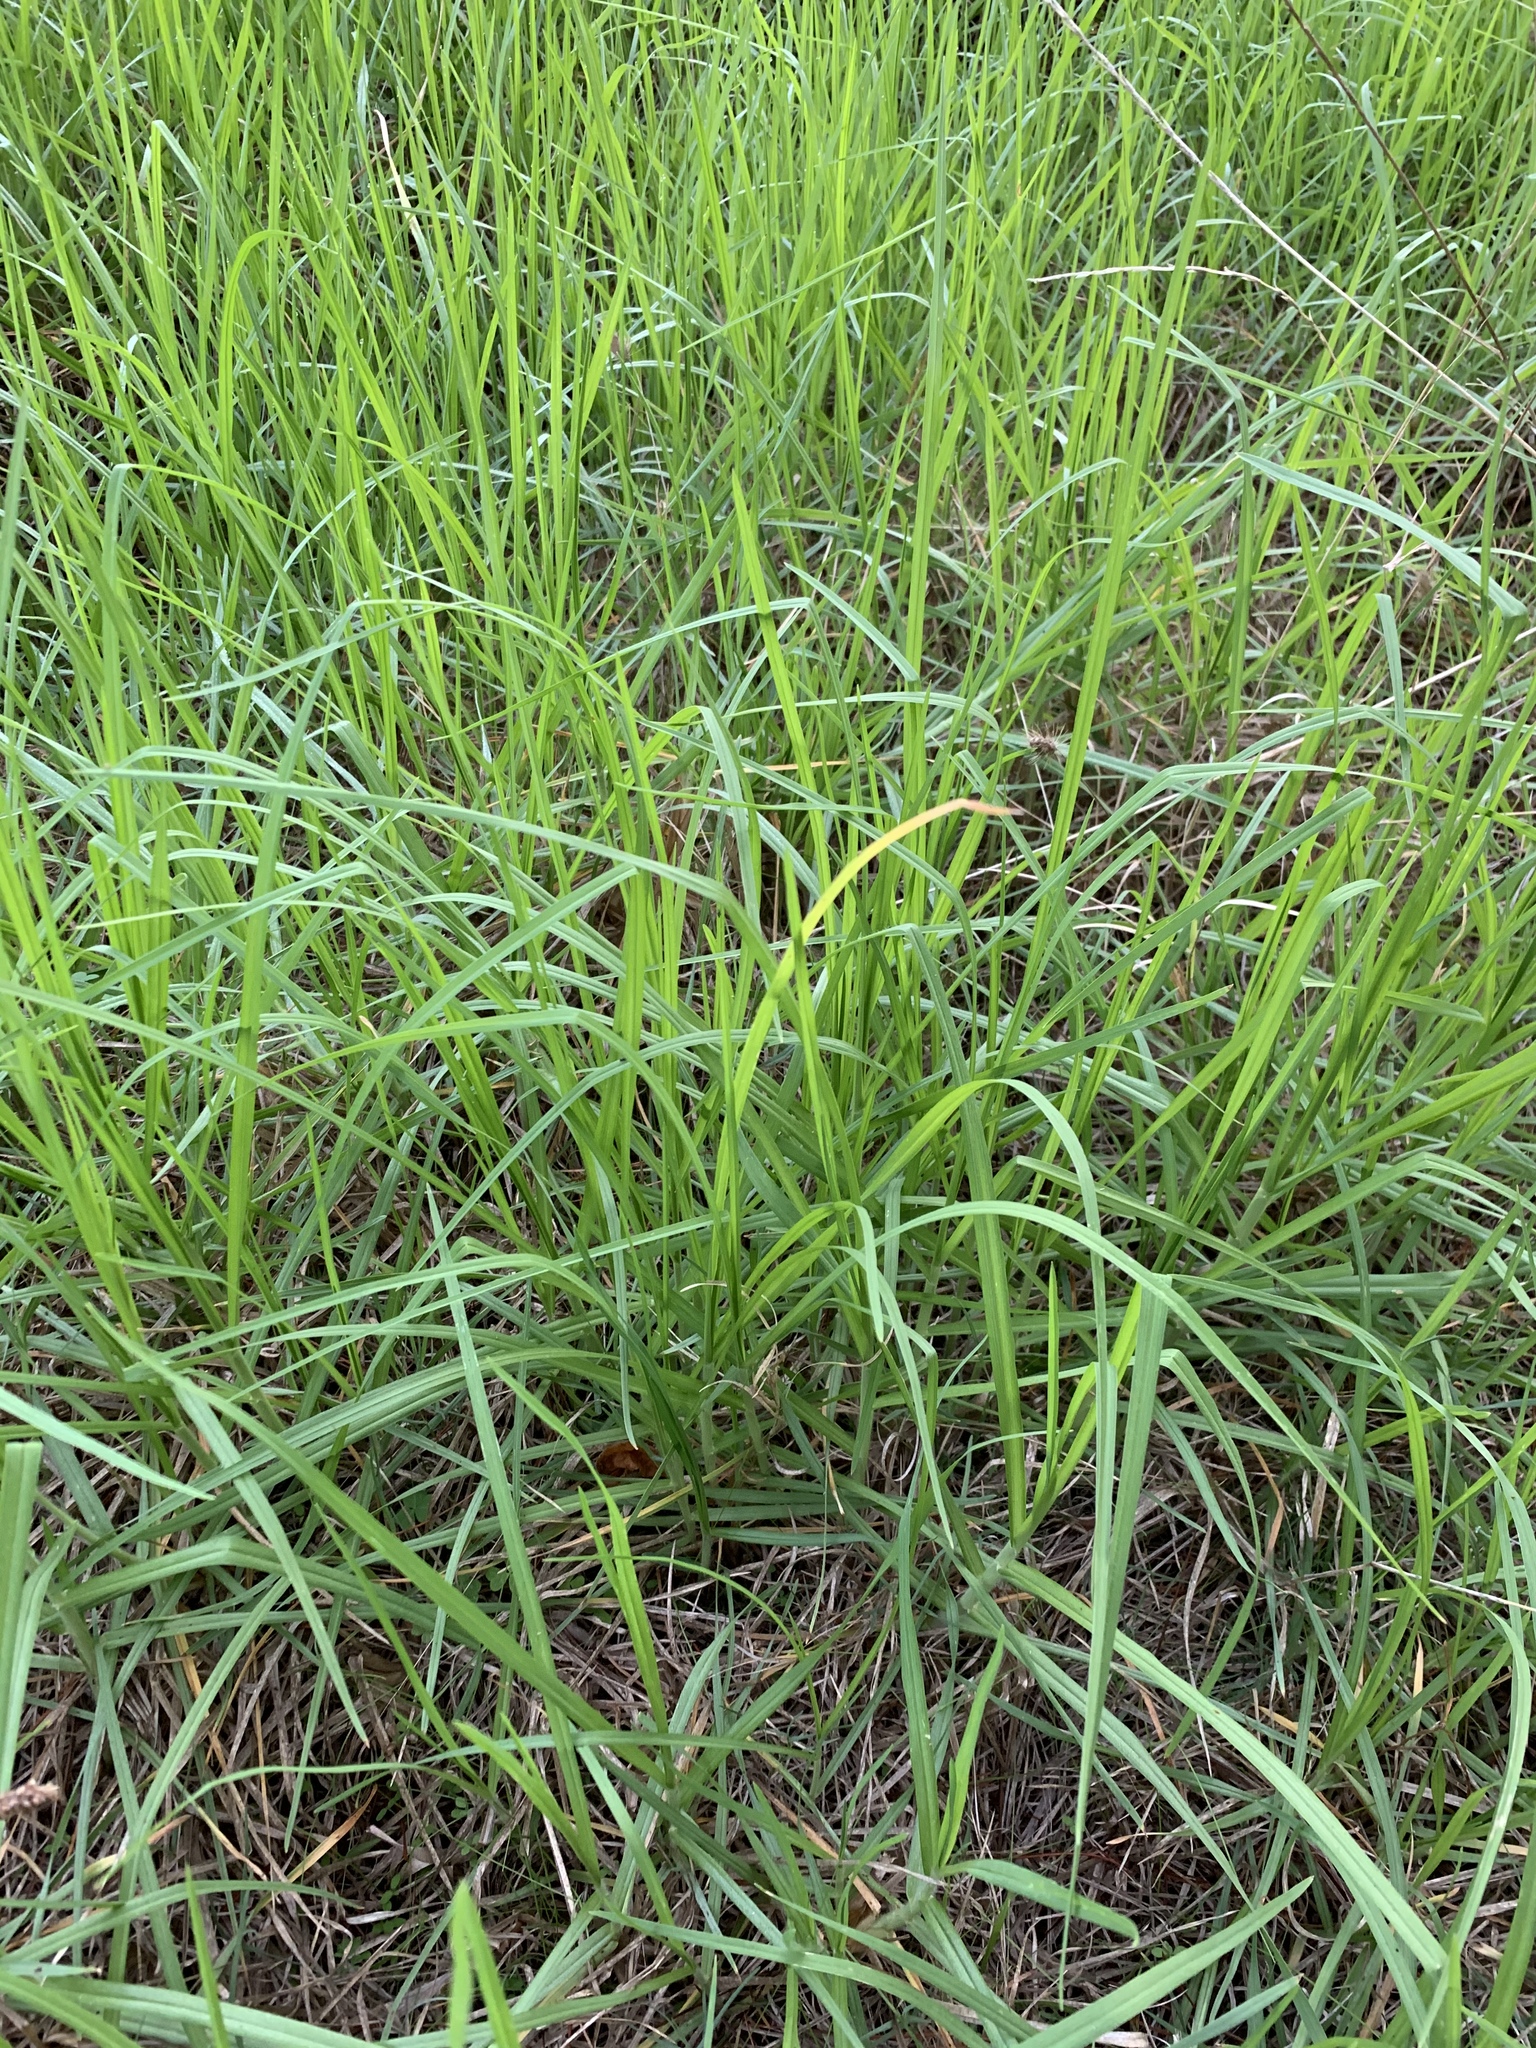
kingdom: Plantae
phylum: Tracheophyta
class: Liliopsida
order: Poales
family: Poaceae
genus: Cenchrus
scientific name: Cenchrus clandestinus
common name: Kikuyugrass
